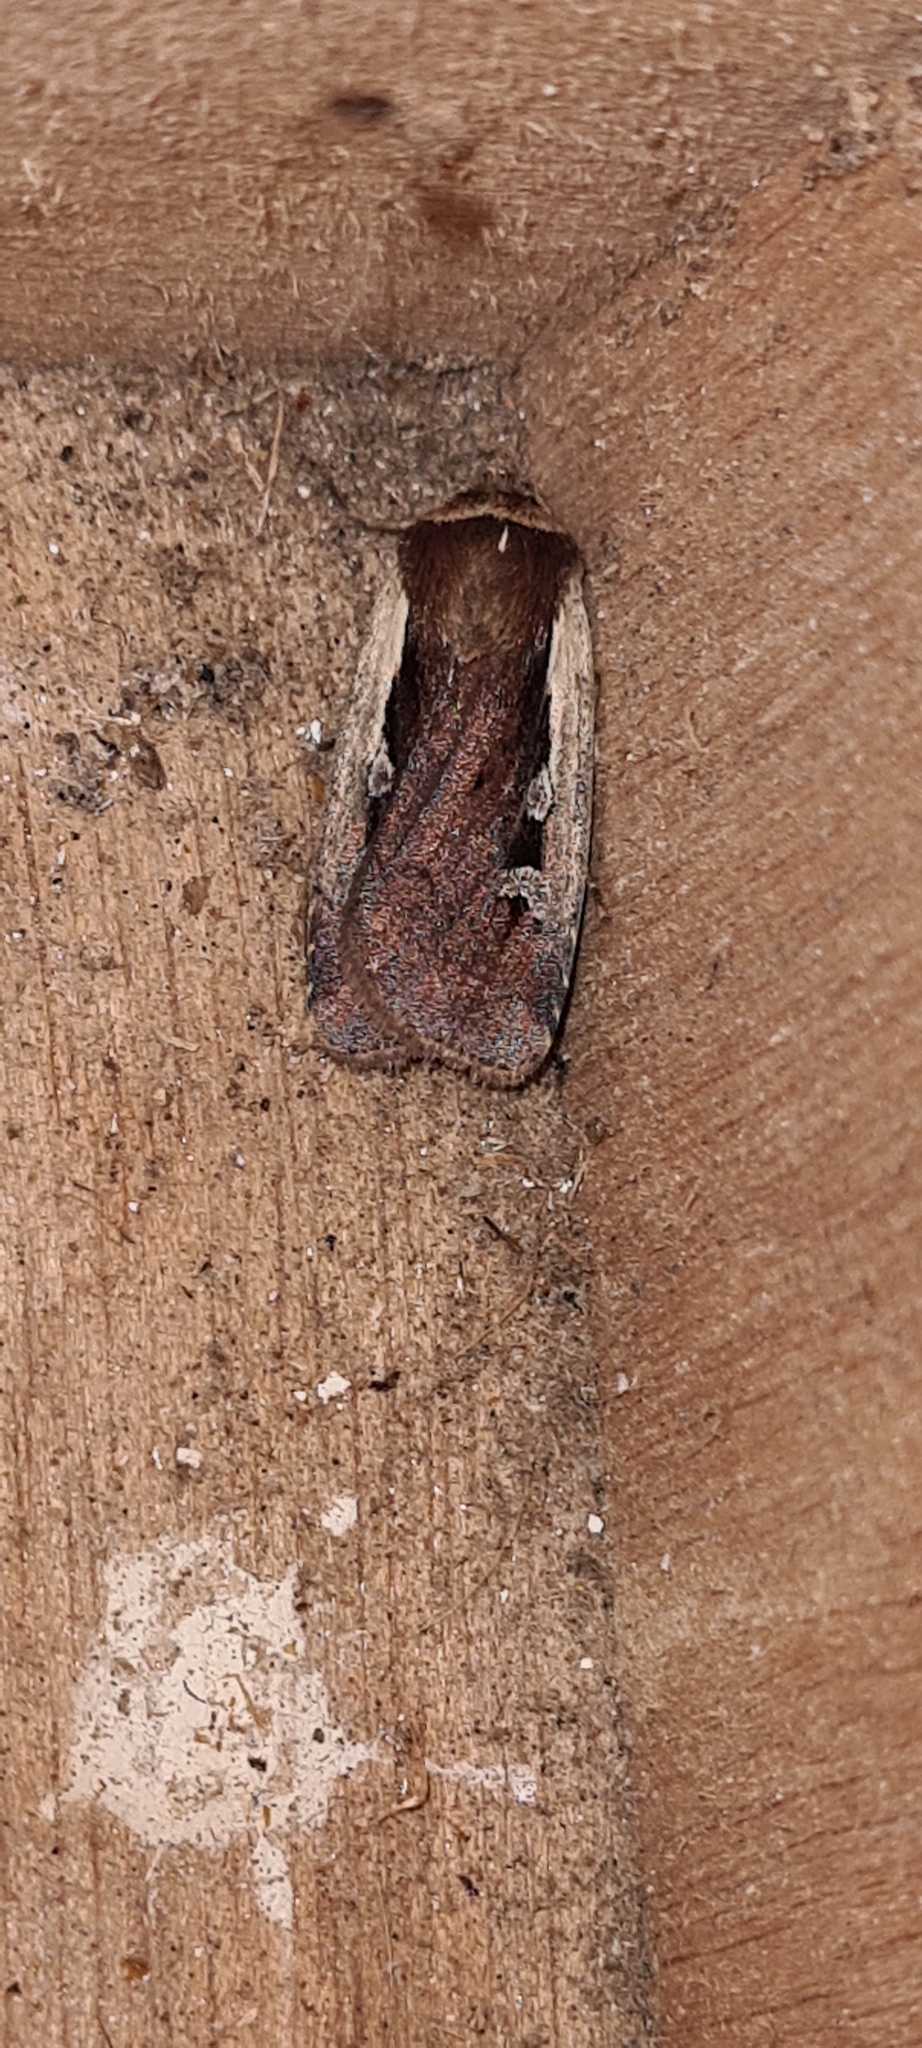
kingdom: Animalia
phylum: Arthropoda
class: Insecta
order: Lepidoptera
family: Noctuidae
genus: Ochropleura
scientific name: Ochropleura plecta
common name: Flame shoulder
